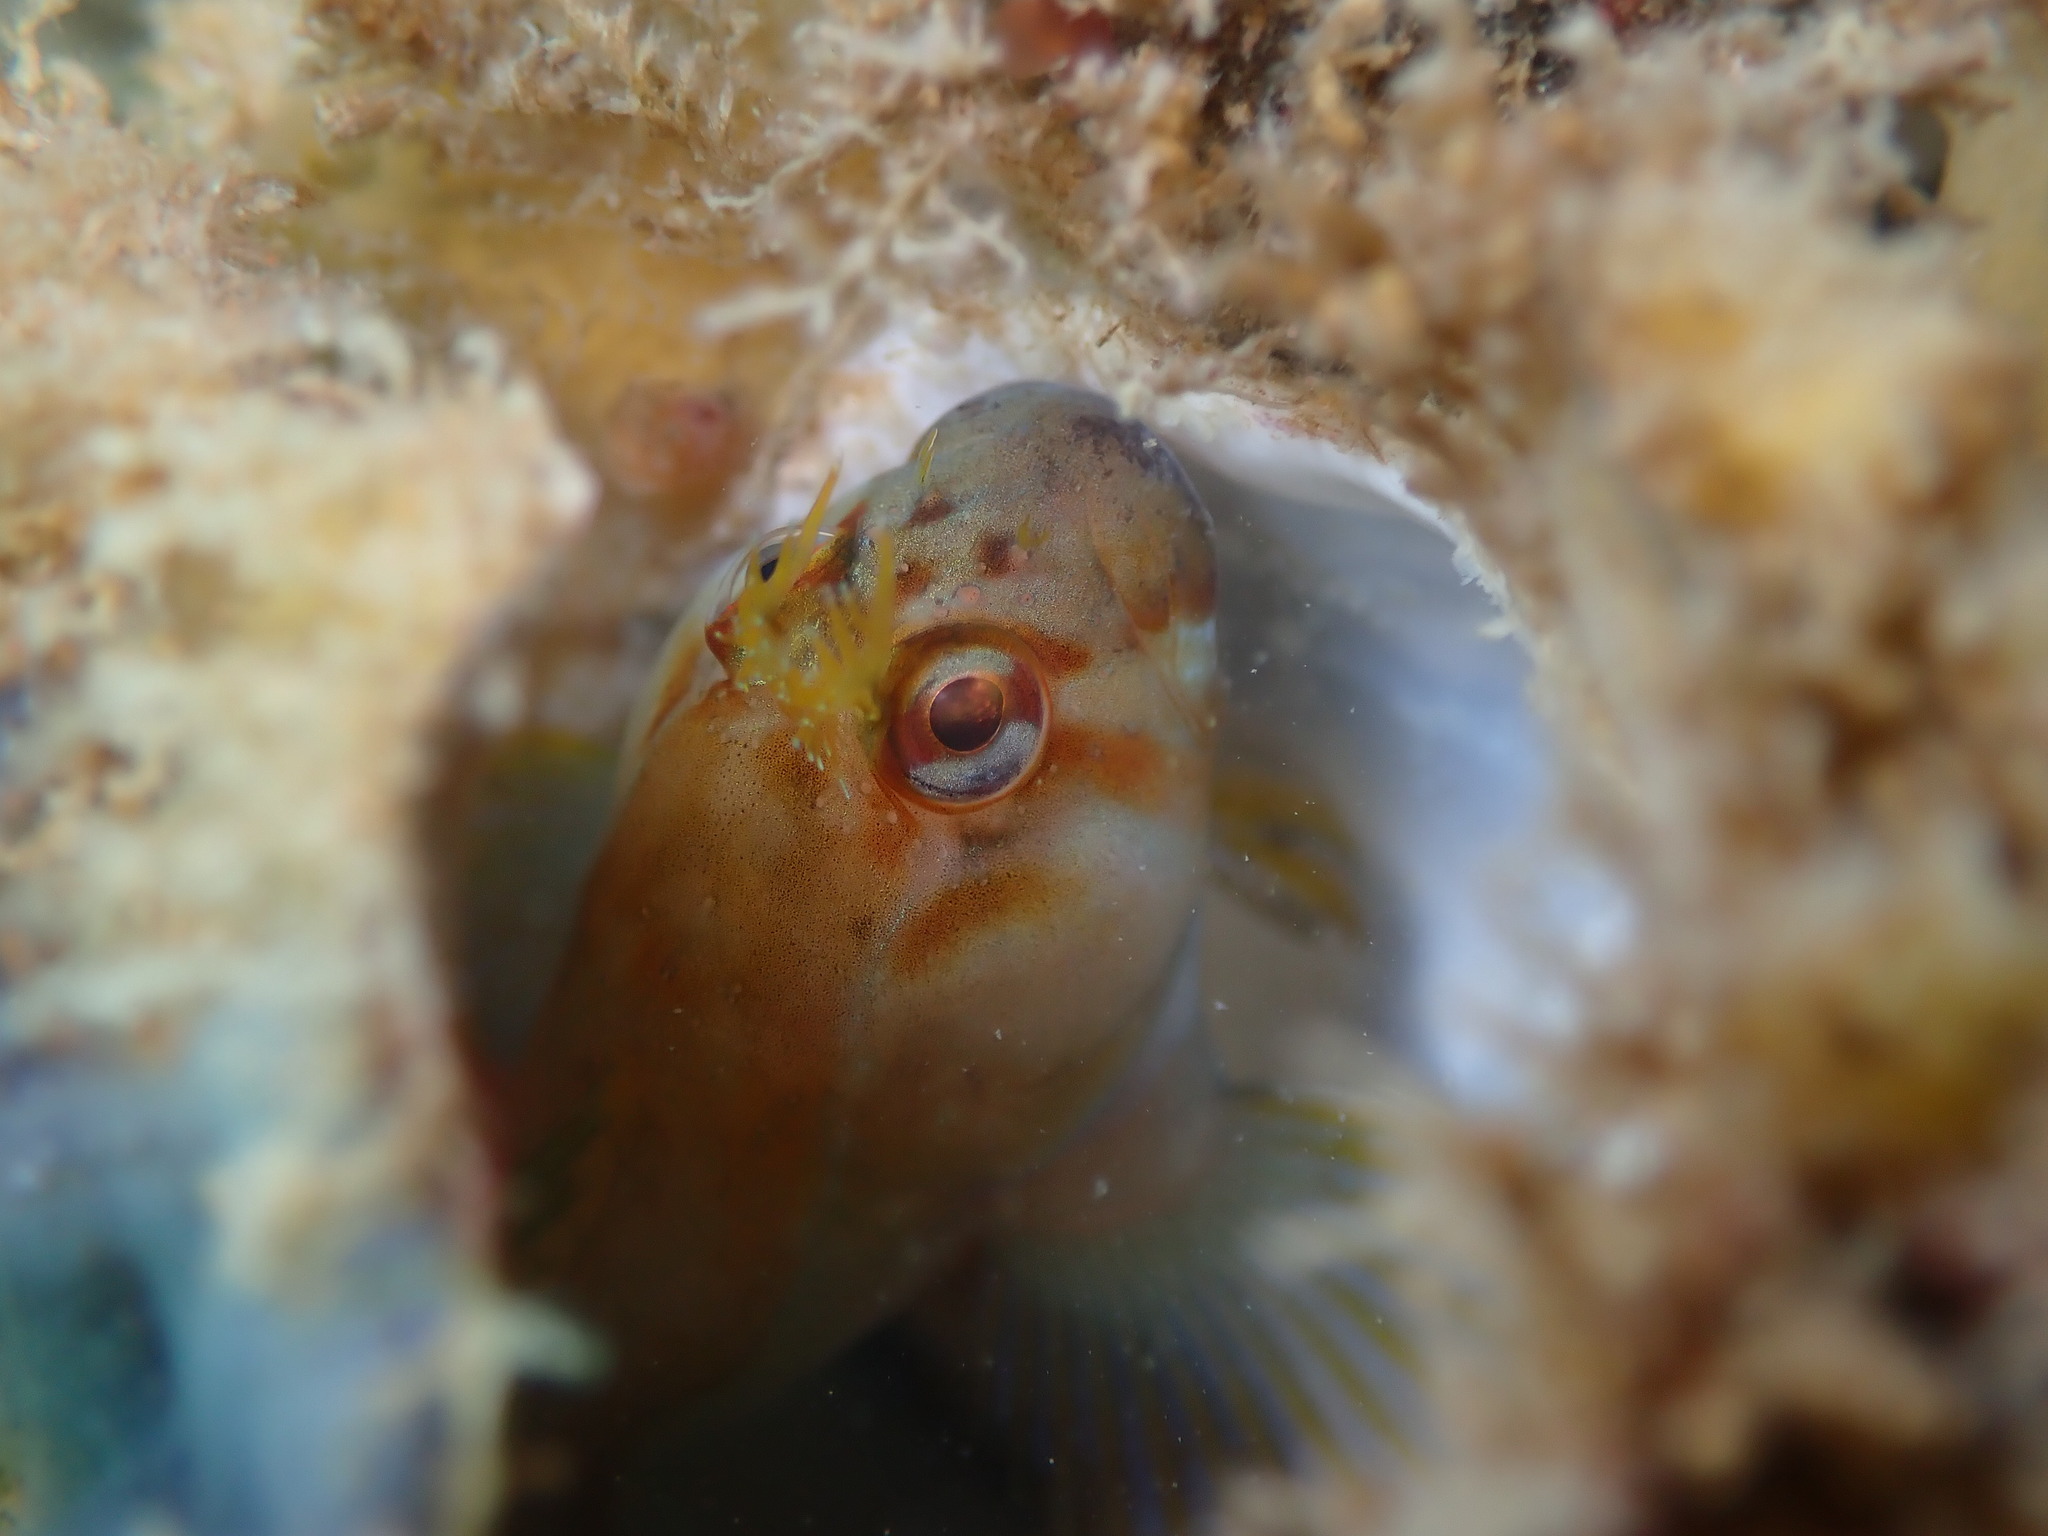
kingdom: Animalia
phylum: Chordata
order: Perciformes
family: Blenniidae
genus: Parablennius
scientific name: Parablennius laticlavius
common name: Crested blenny
